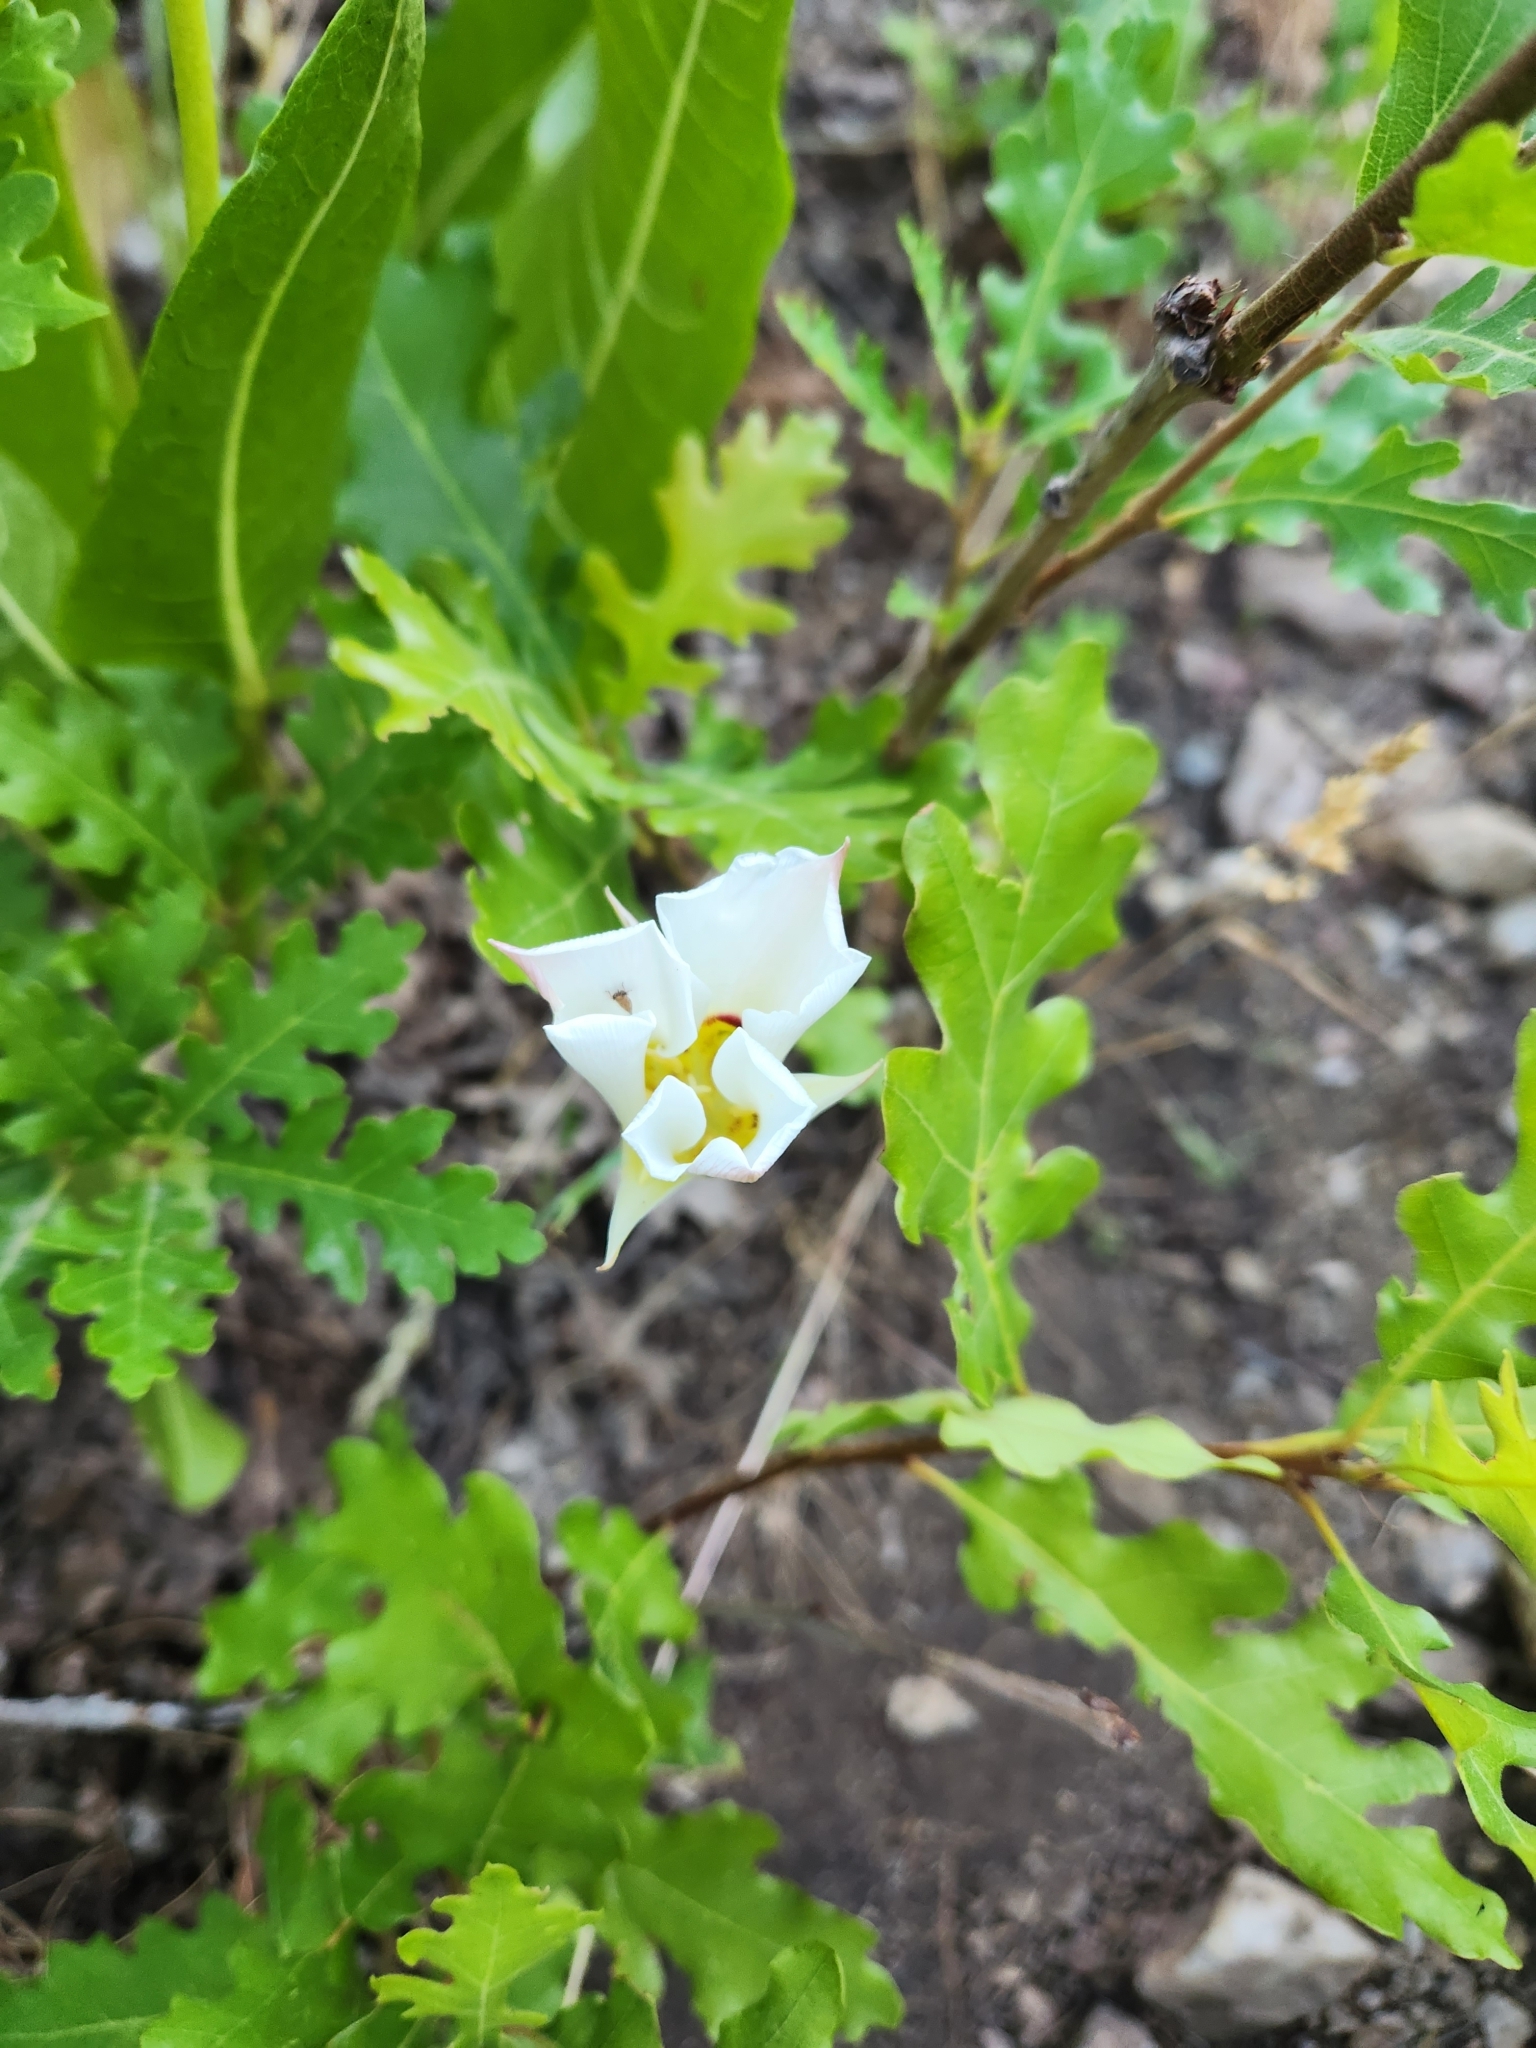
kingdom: Plantae
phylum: Tracheophyta
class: Liliopsida
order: Liliales
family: Liliaceae
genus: Calochortus
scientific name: Calochortus nuttallii
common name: Sego-lily
